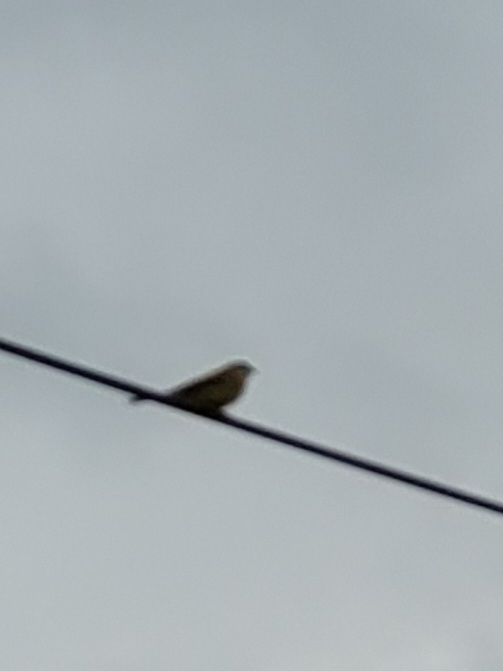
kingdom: Animalia
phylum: Chordata
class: Aves
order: Passeriformes
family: Emberizidae
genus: Emberiza
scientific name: Emberiza citrinella
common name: Yellowhammer
